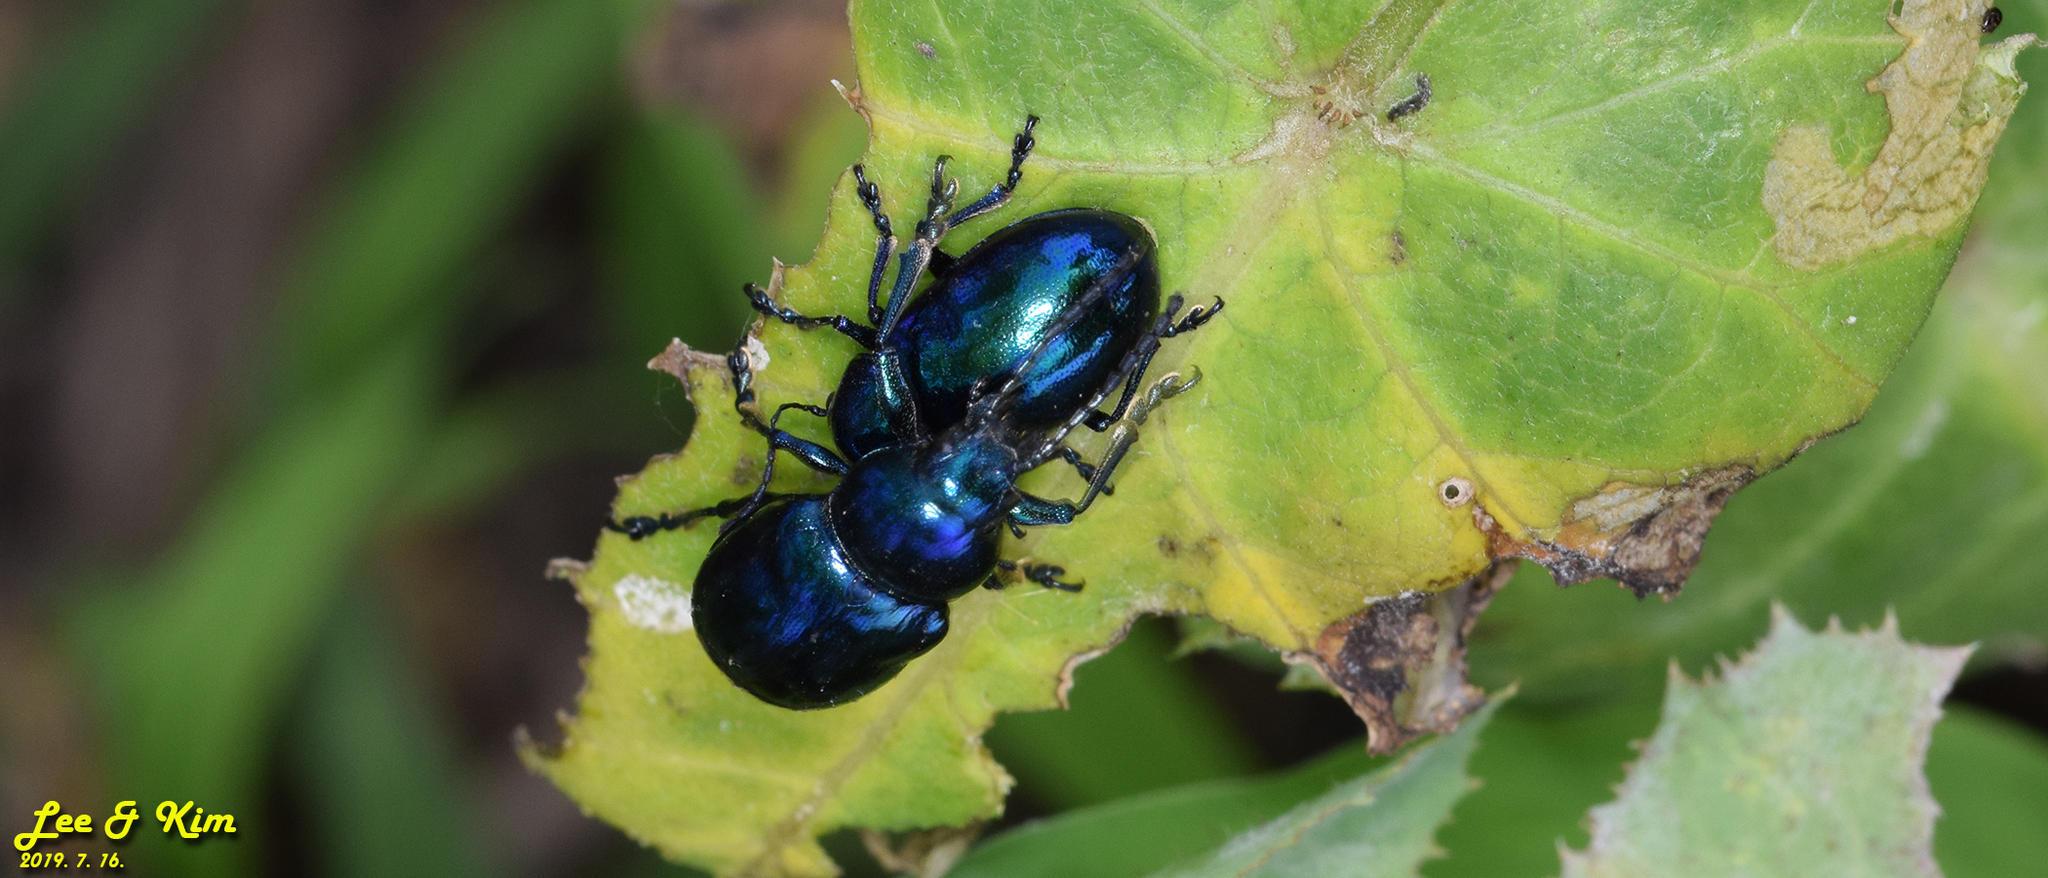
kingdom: Animalia
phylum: Arthropoda
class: Insecta
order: Coleoptera
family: Chrysomelidae
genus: Chrysochus
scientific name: Chrysochus chinensis
